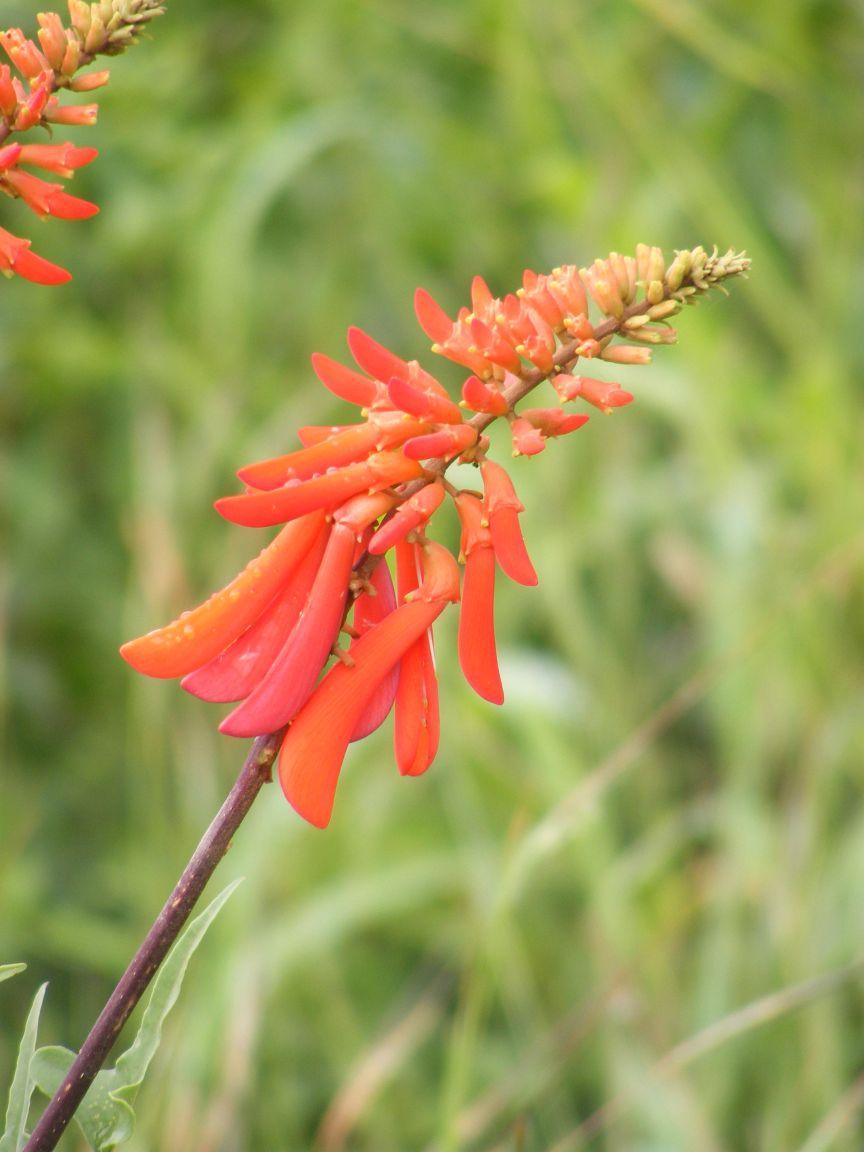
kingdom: Plantae
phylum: Tracheophyta
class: Magnoliopsida
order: Fabales
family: Fabaceae
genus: Erythrina
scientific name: Erythrina humeana
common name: Dwarf coral tree
